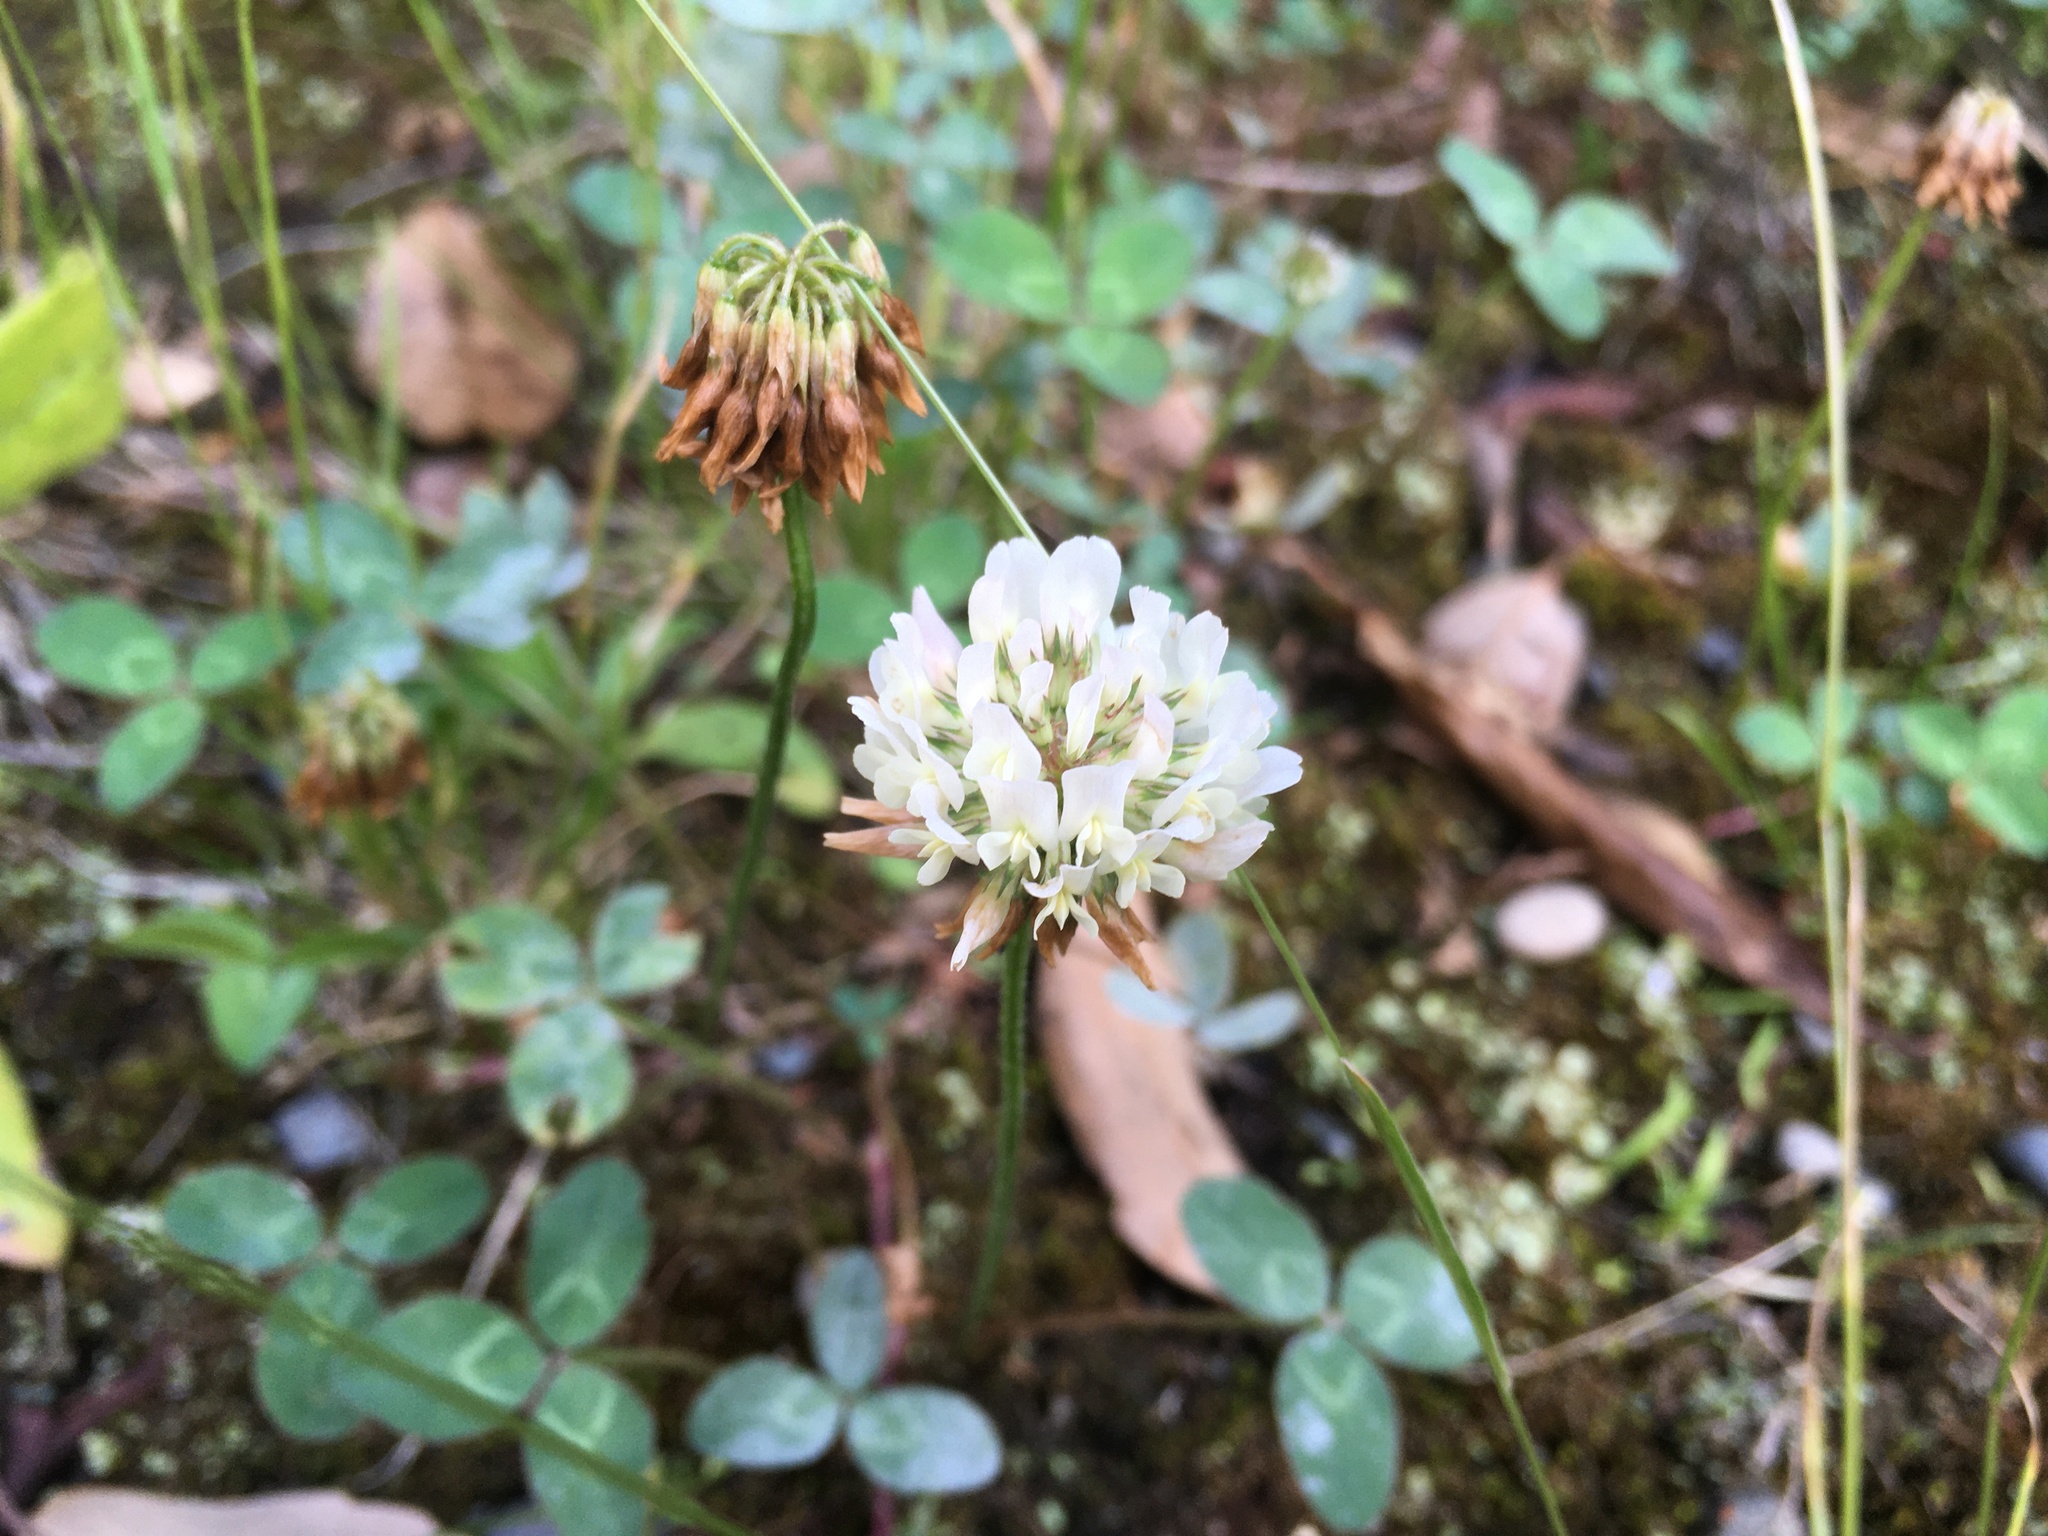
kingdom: Plantae
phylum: Tracheophyta
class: Magnoliopsida
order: Fabales
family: Fabaceae
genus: Trifolium
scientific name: Trifolium repens
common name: White clover
